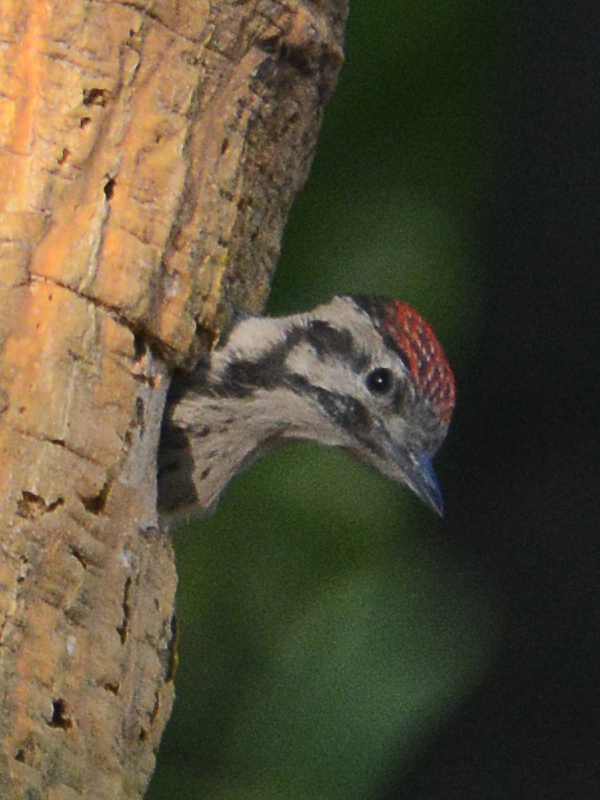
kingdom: Animalia
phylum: Chordata
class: Aves
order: Piciformes
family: Picidae
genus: Dryobates
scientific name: Dryobates scalaris
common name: Ladder-backed woodpecker
